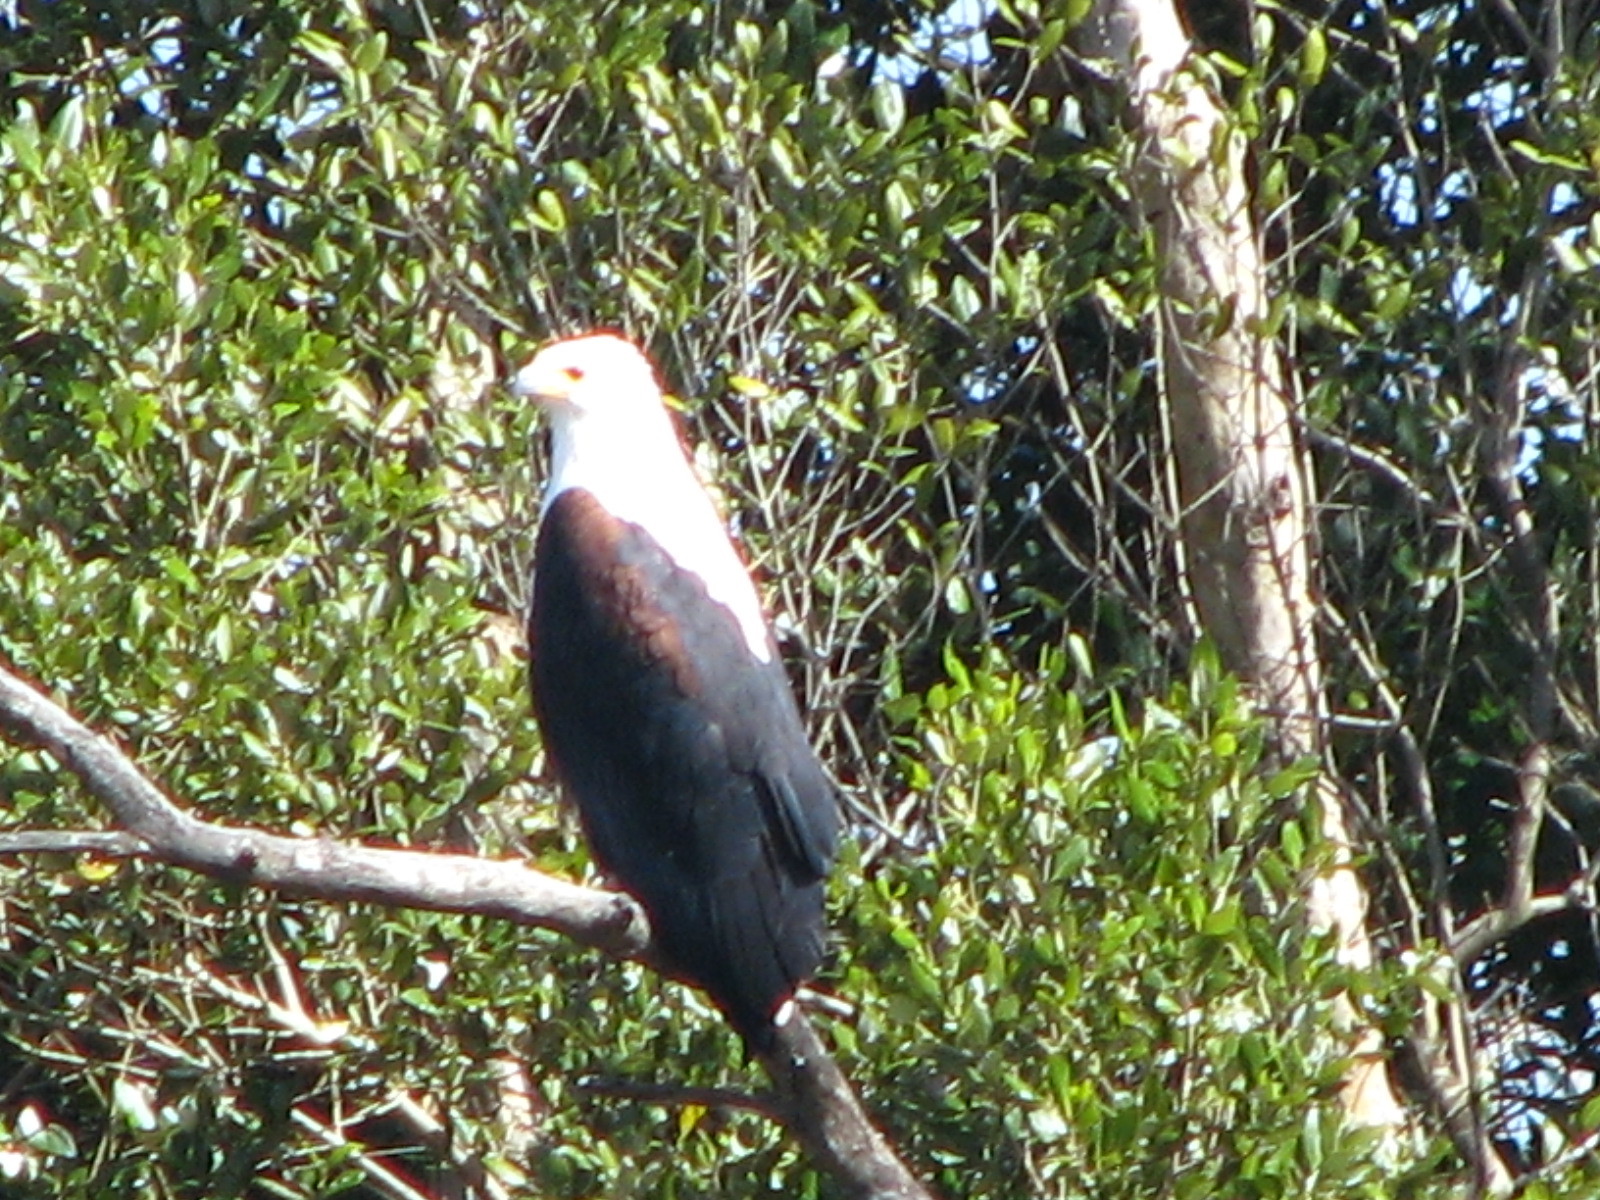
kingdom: Animalia
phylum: Chordata
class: Aves
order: Accipitriformes
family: Accipitridae
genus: Haliaeetus
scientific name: Haliaeetus vocifer
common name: African fish eagle
